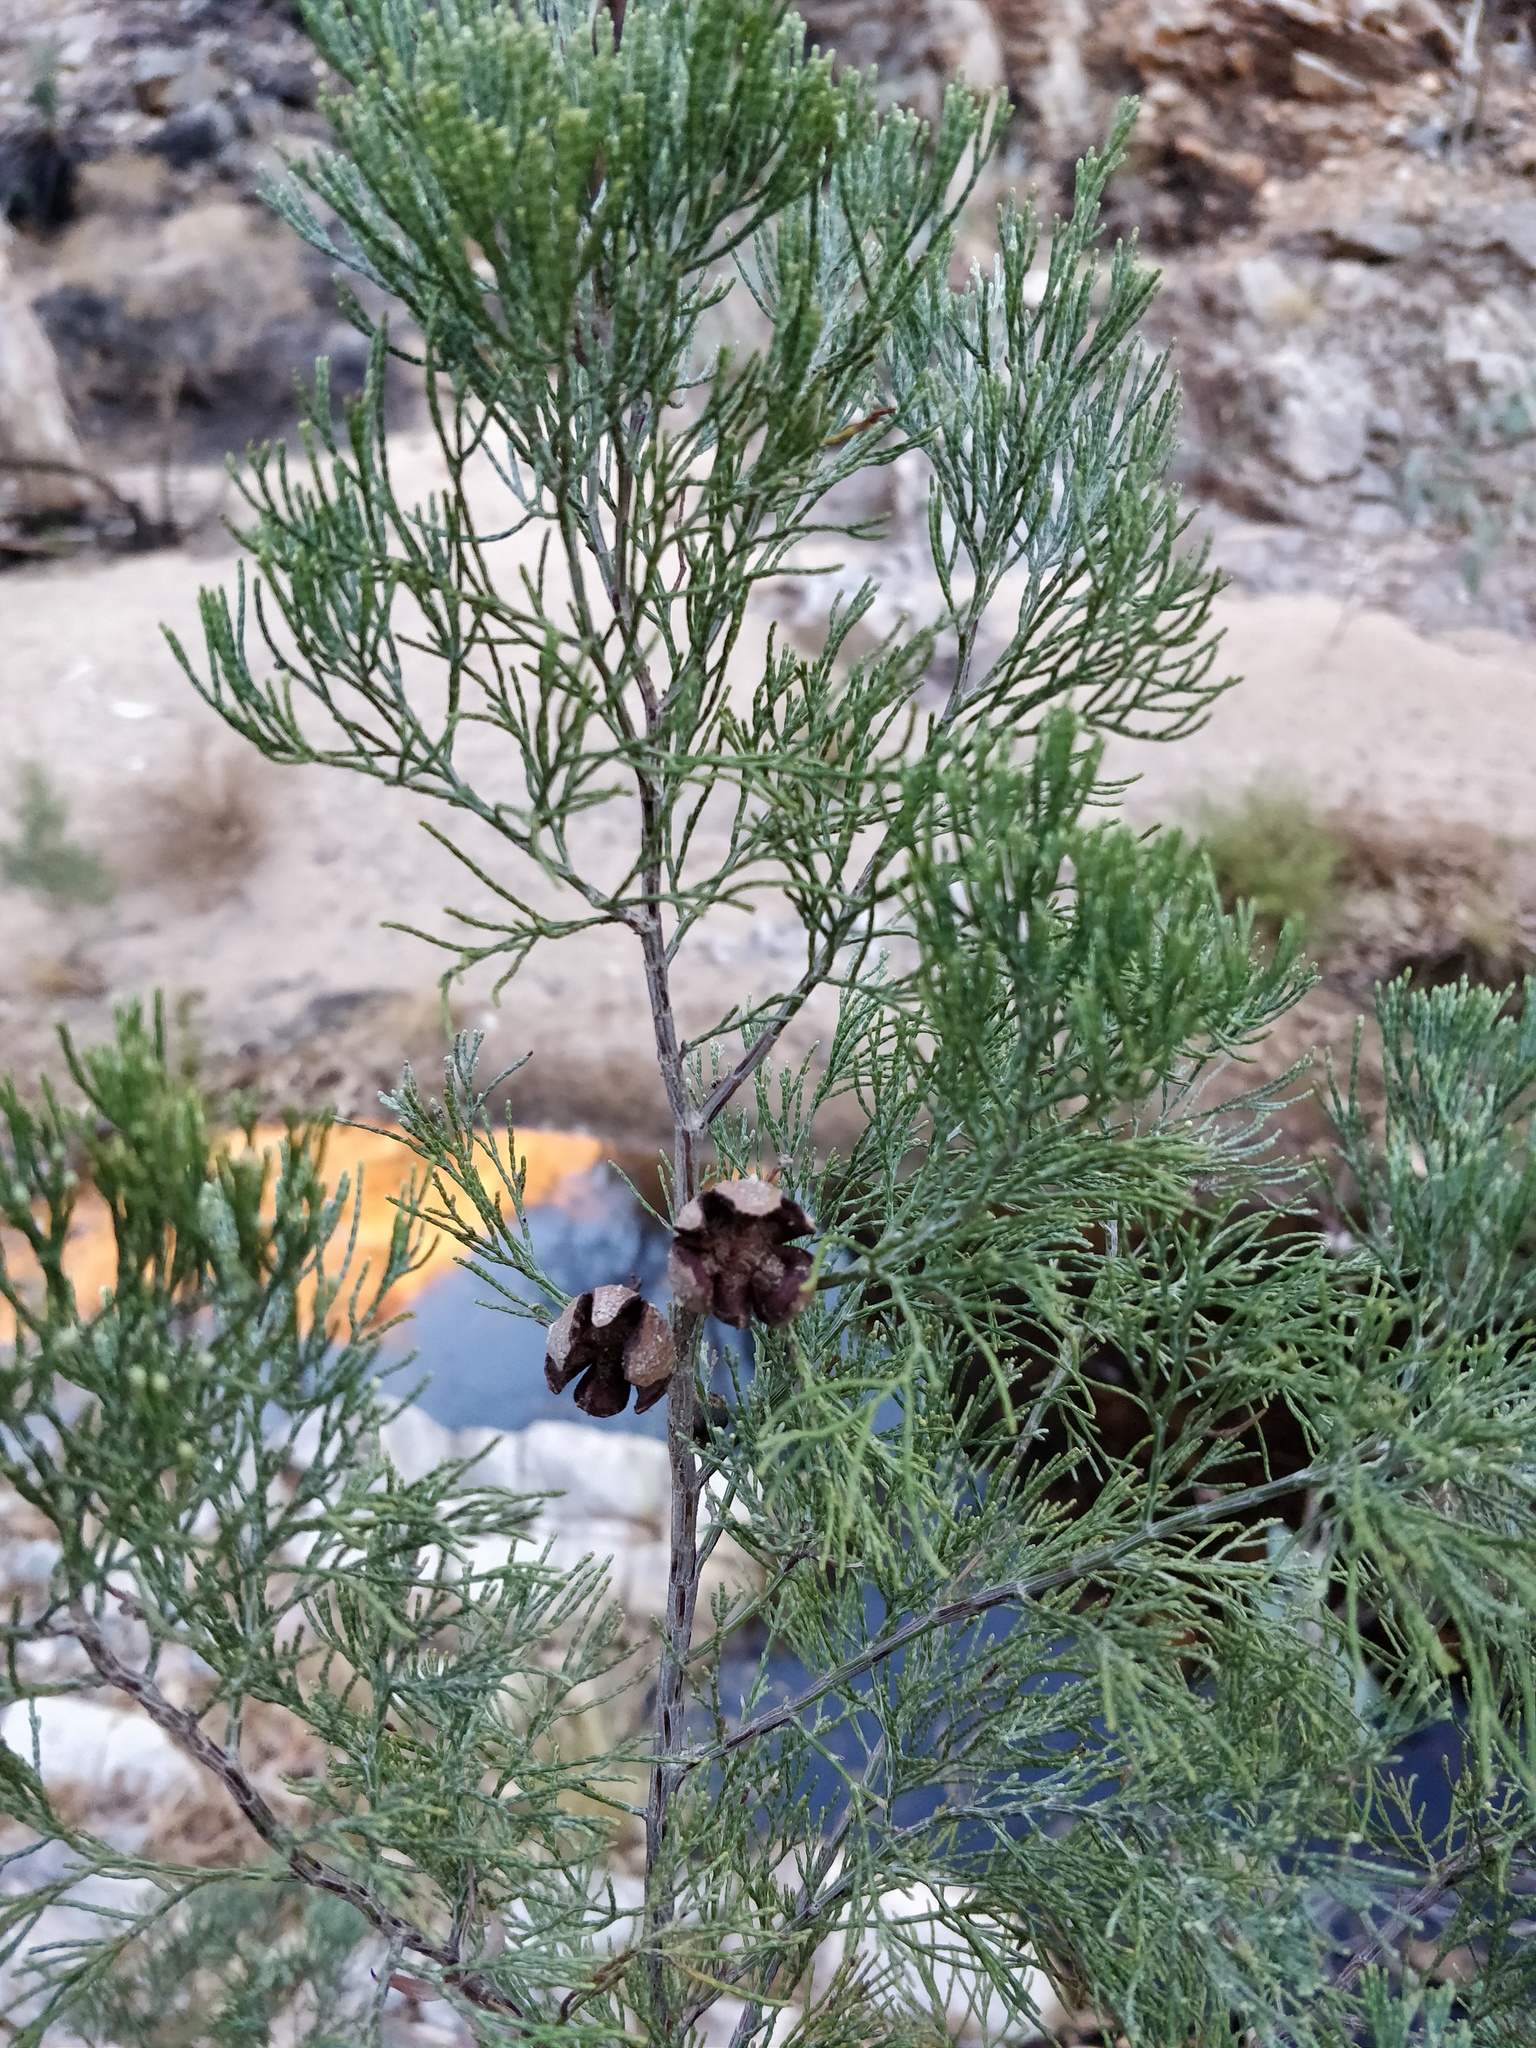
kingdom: Plantae
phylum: Tracheophyta
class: Pinopsida
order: Pinales
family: Cupressaceae
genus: Callitris
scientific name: Callitris columellaris
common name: White cypress-pine
